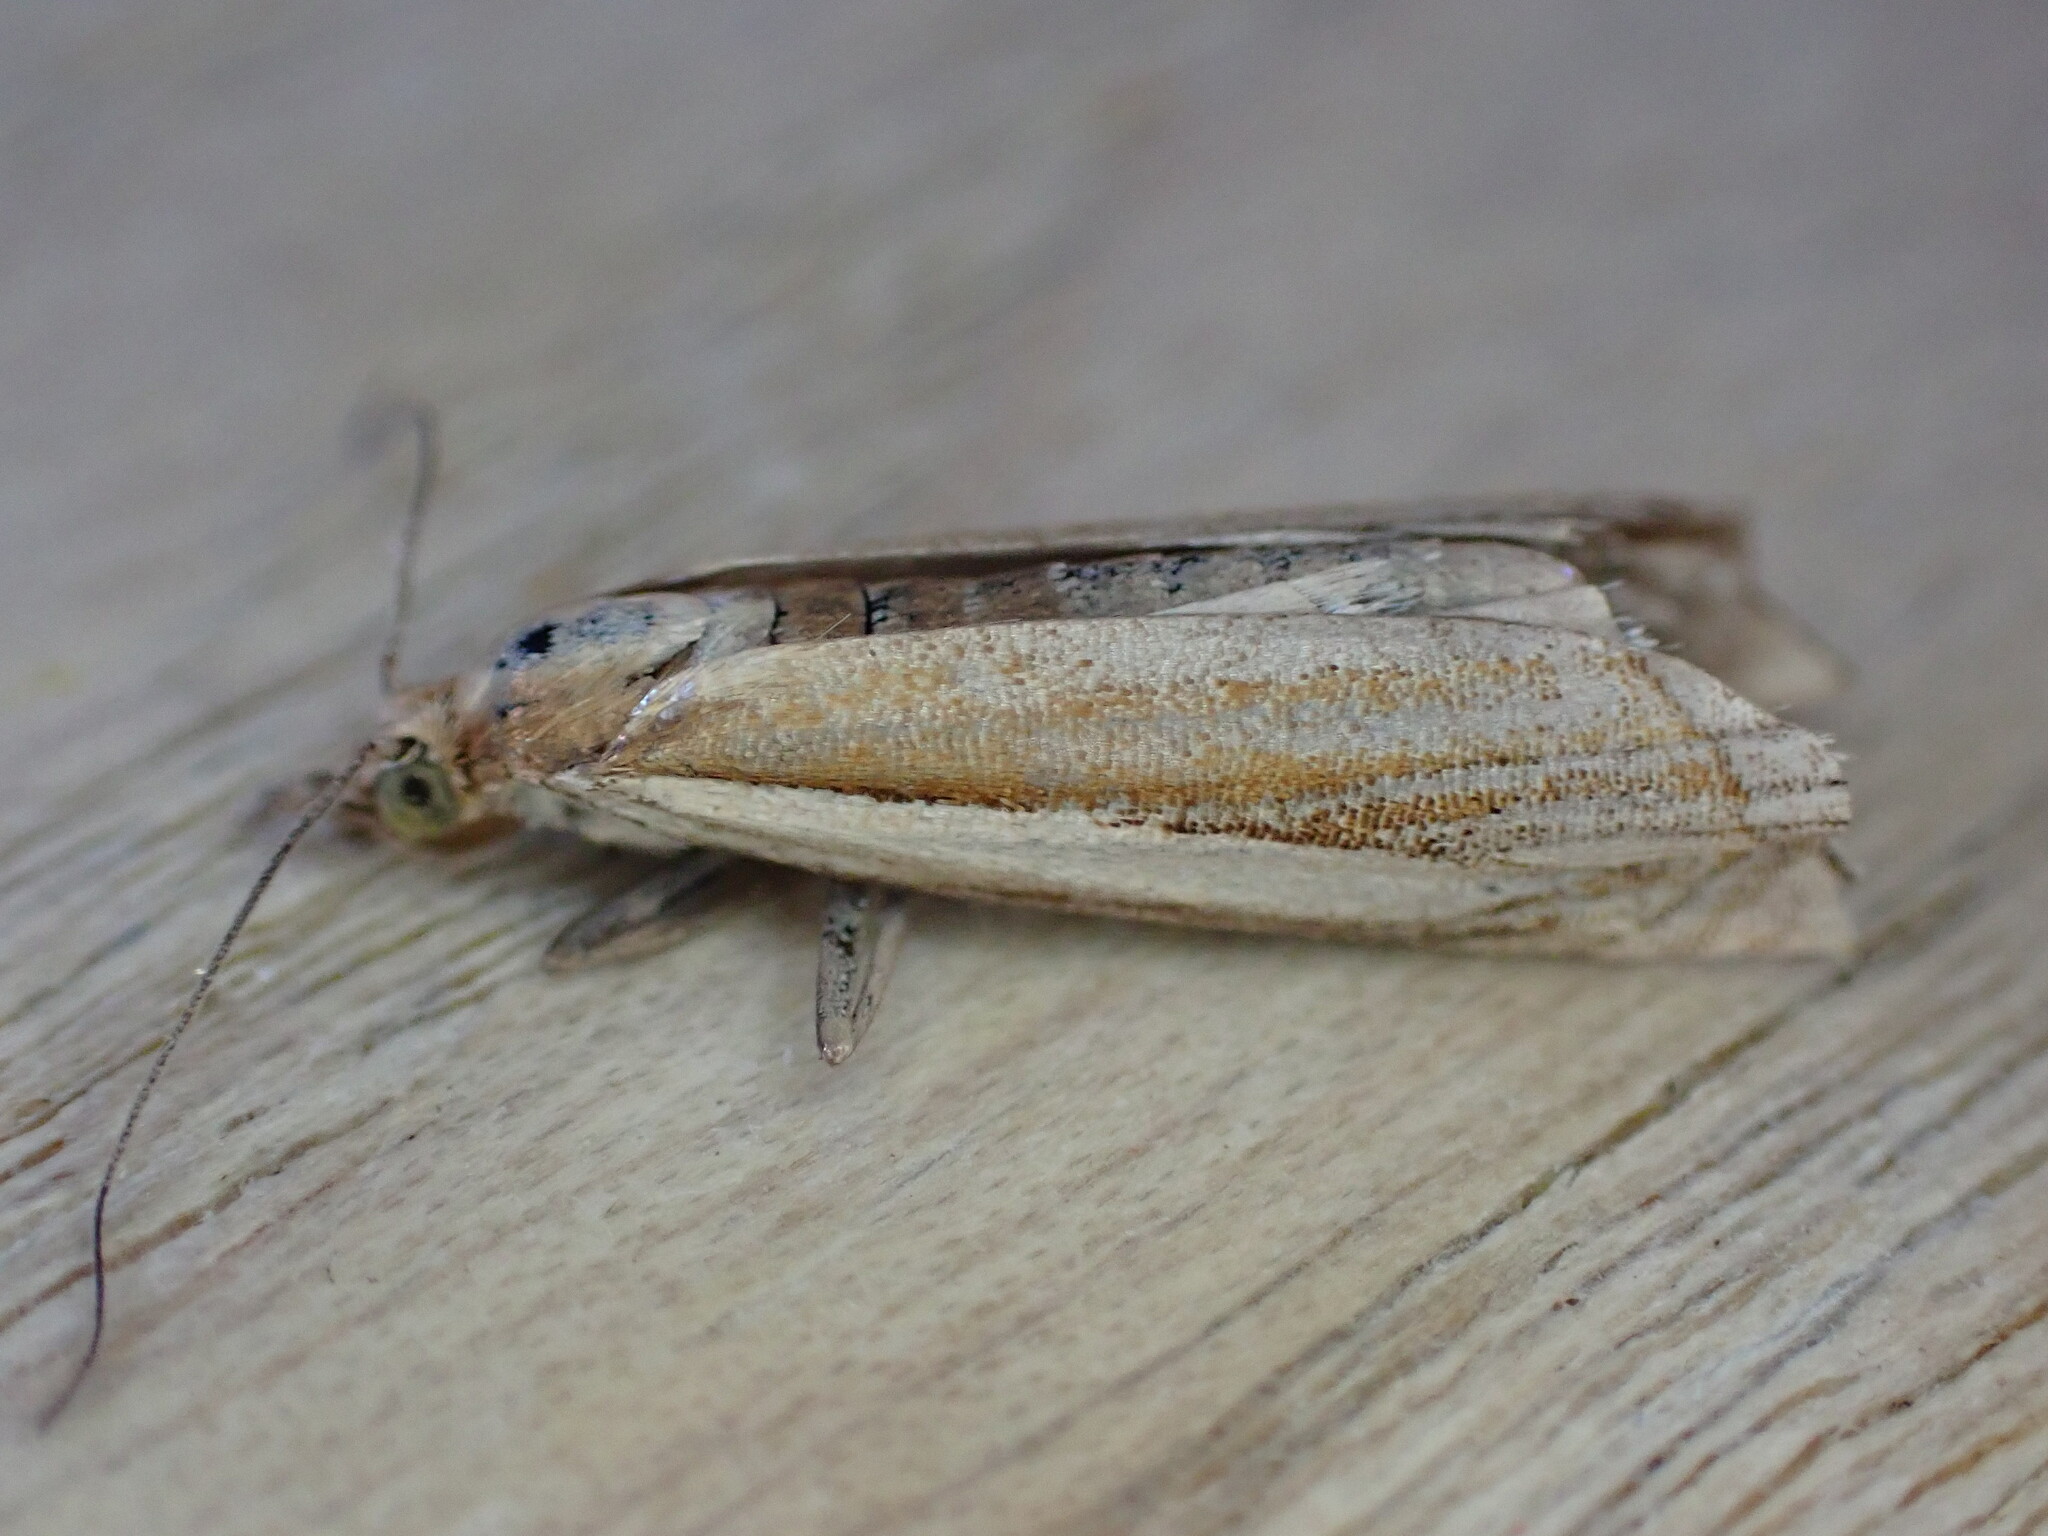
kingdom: Animalia
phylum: Arthropoda
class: Insecta
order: Lepidoptera
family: Crambidae
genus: Crambus
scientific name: Crambus pascuella
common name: Inlaid grass-veneer
